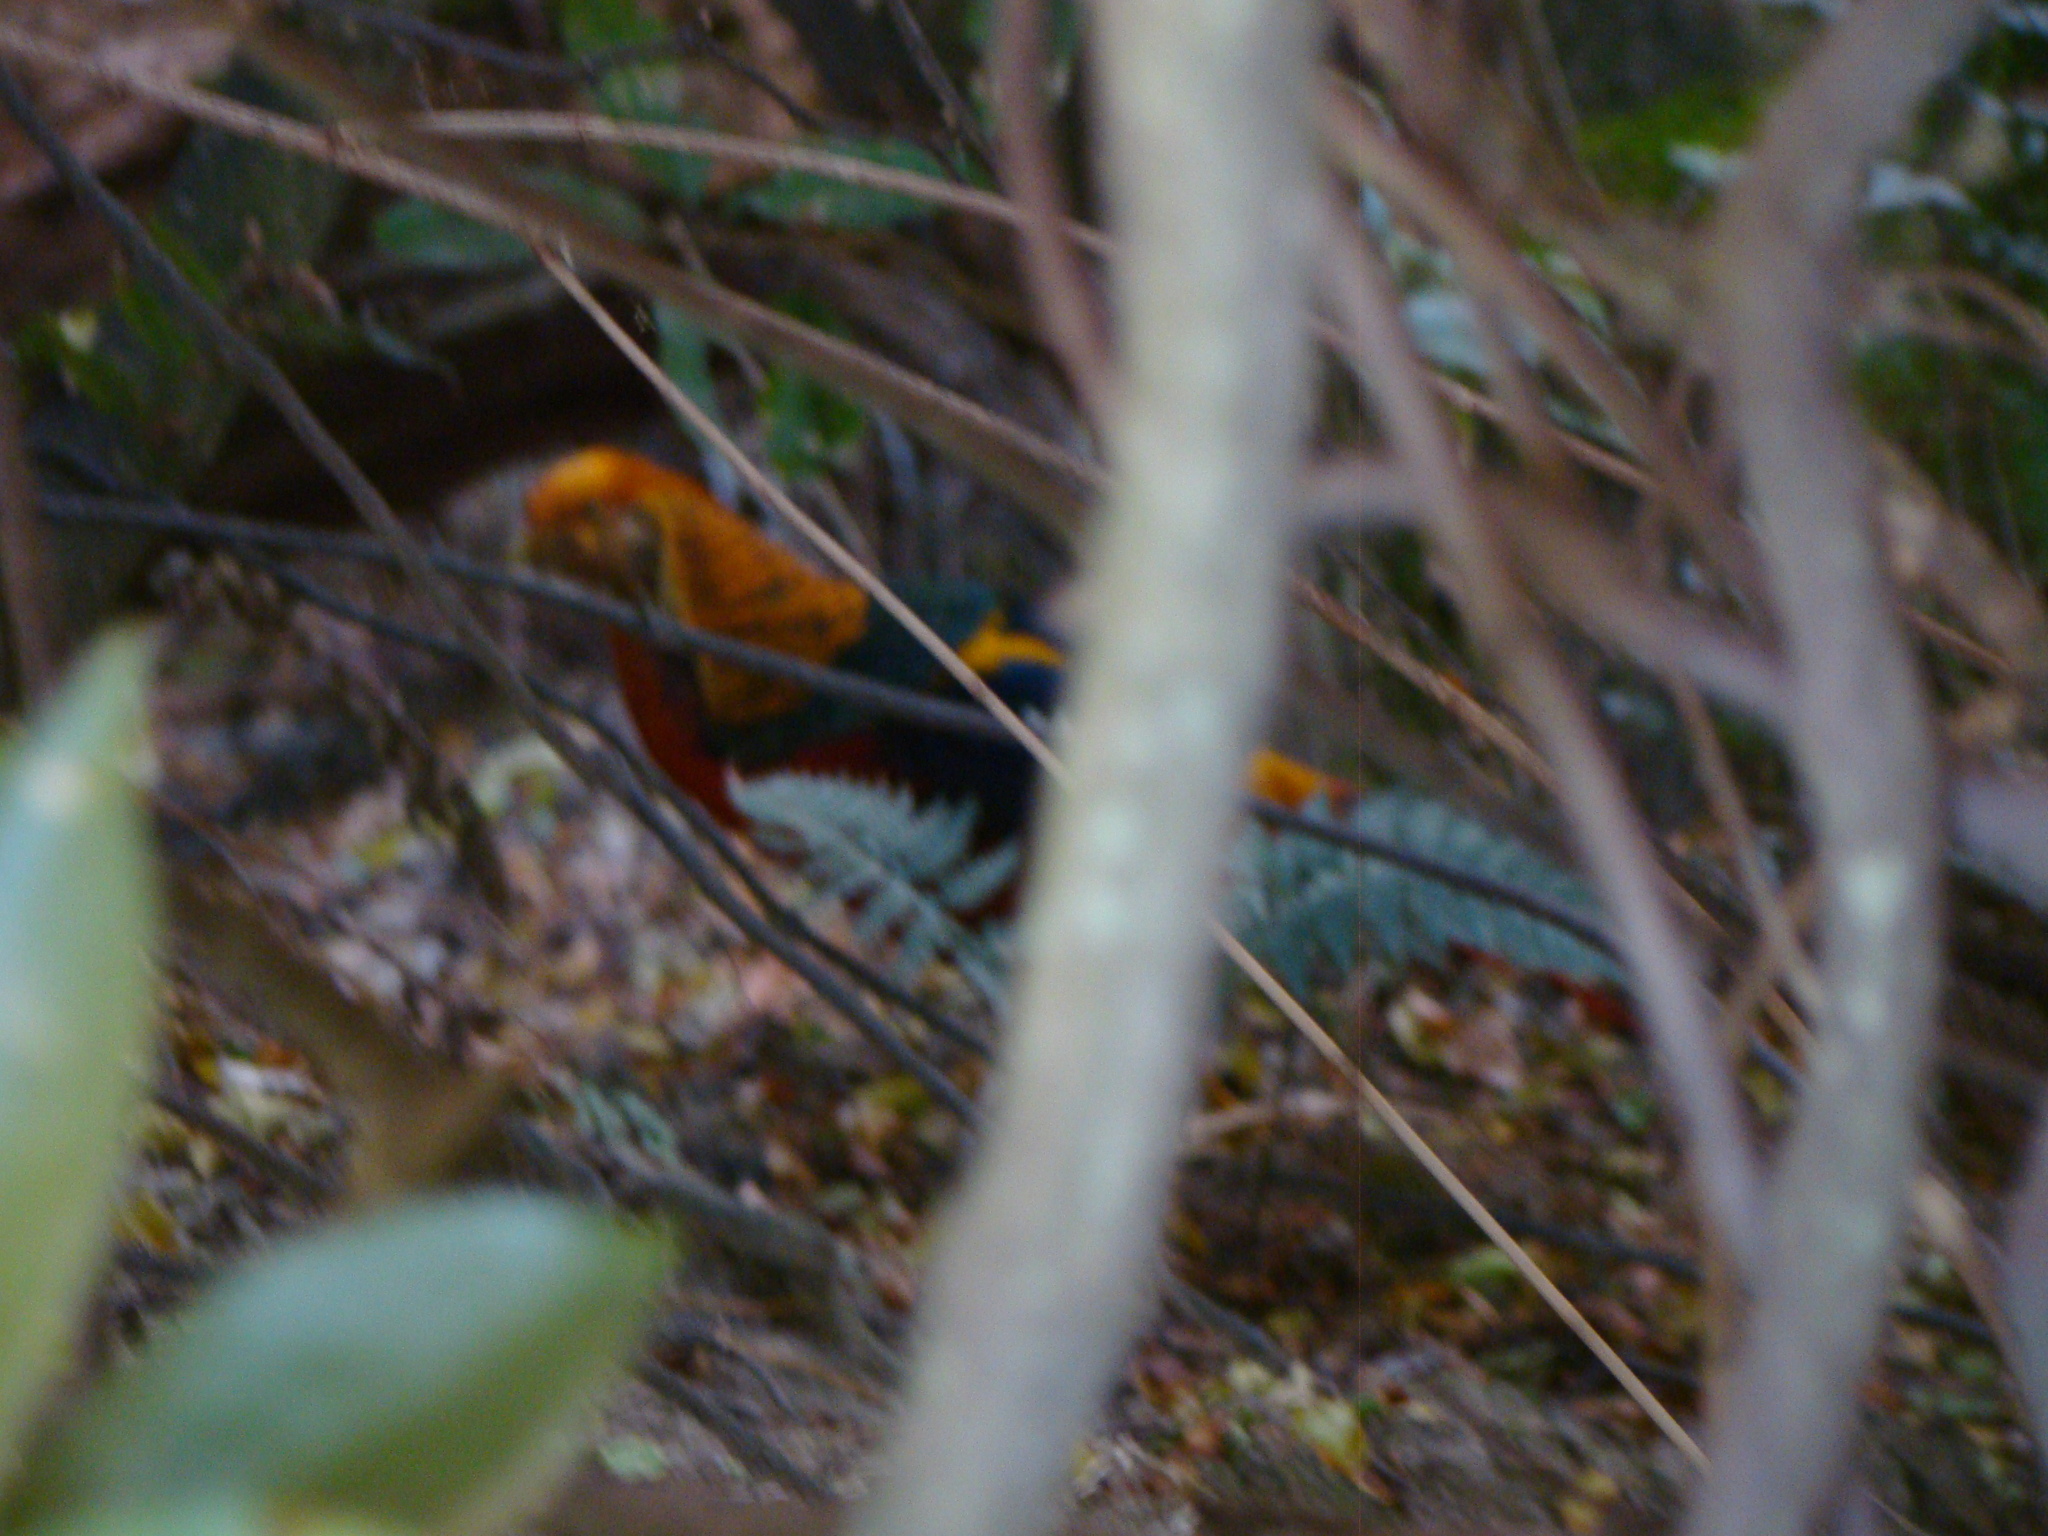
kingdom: Animalia
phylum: Chordata
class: Aves
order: Galliformes
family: Phasianidae
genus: Chrysolophus
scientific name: Chrysolophus pictus
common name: Golden pheasant
